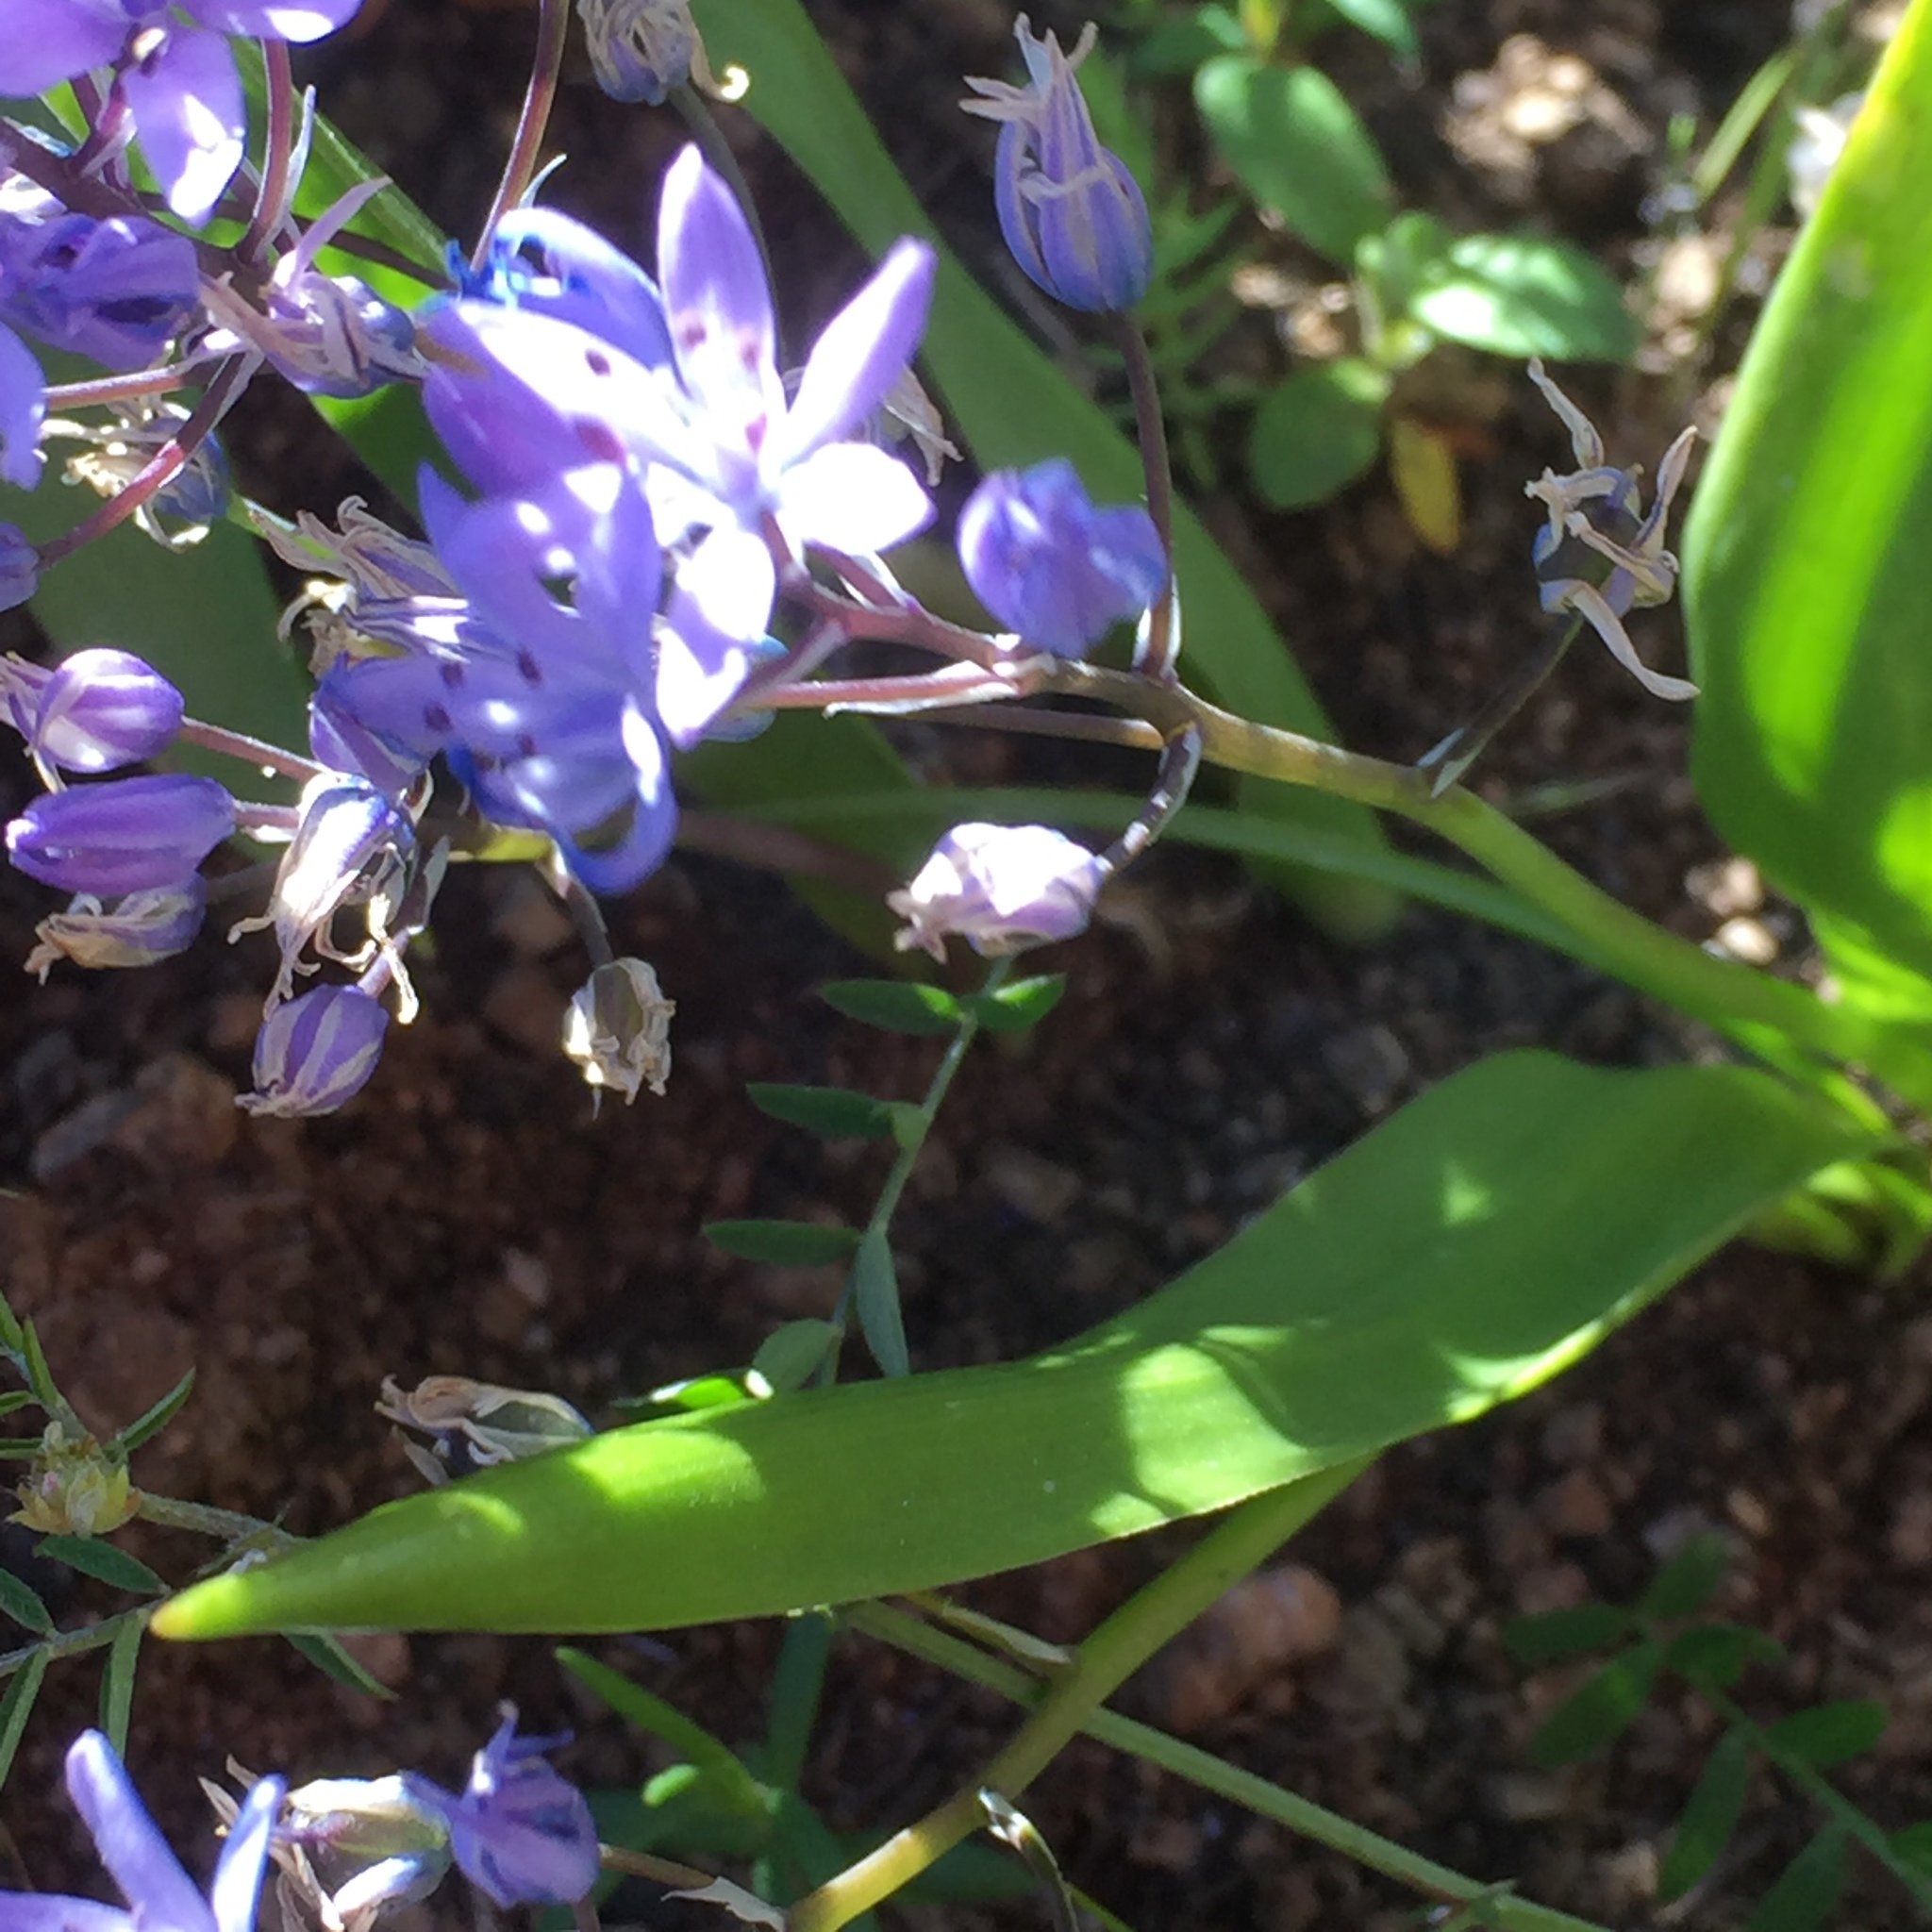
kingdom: Plantae
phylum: Tracheophyta
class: Liliopsida
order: Asparagales
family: Asparagaceae
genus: Scilla
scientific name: Scilla monophyllos
